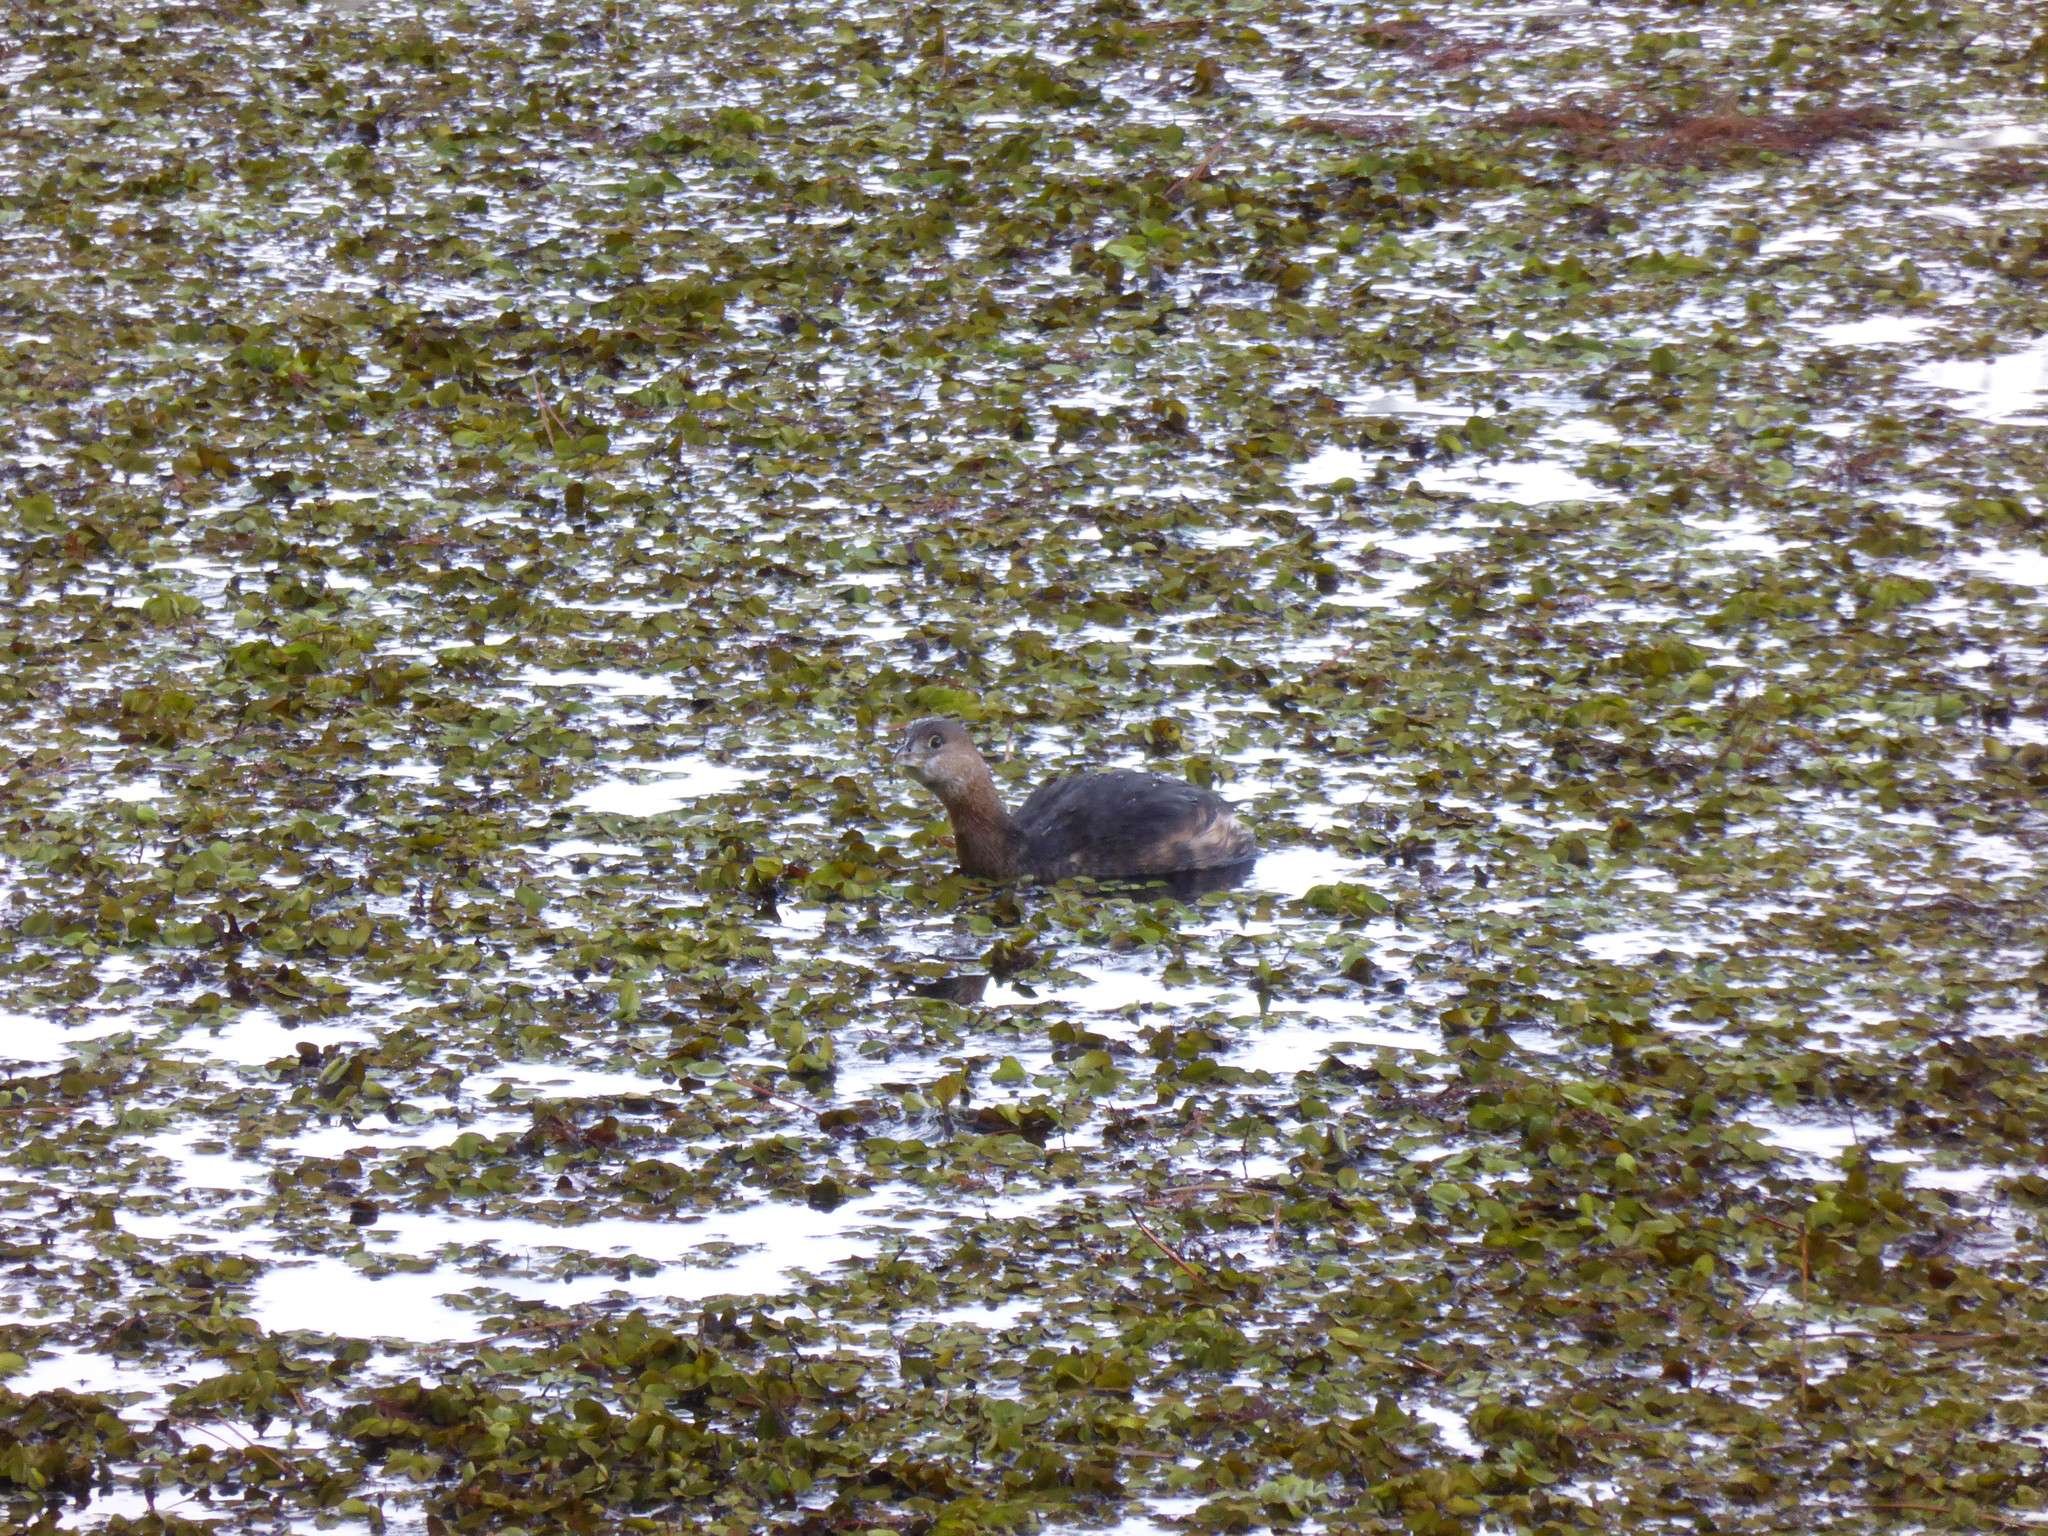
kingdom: Animalia
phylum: Chordata
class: Aves
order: Podicipediformes
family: Podicipedidae
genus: Podilymbus
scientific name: Podilymbus podiceps
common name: Pied-billed grebe
